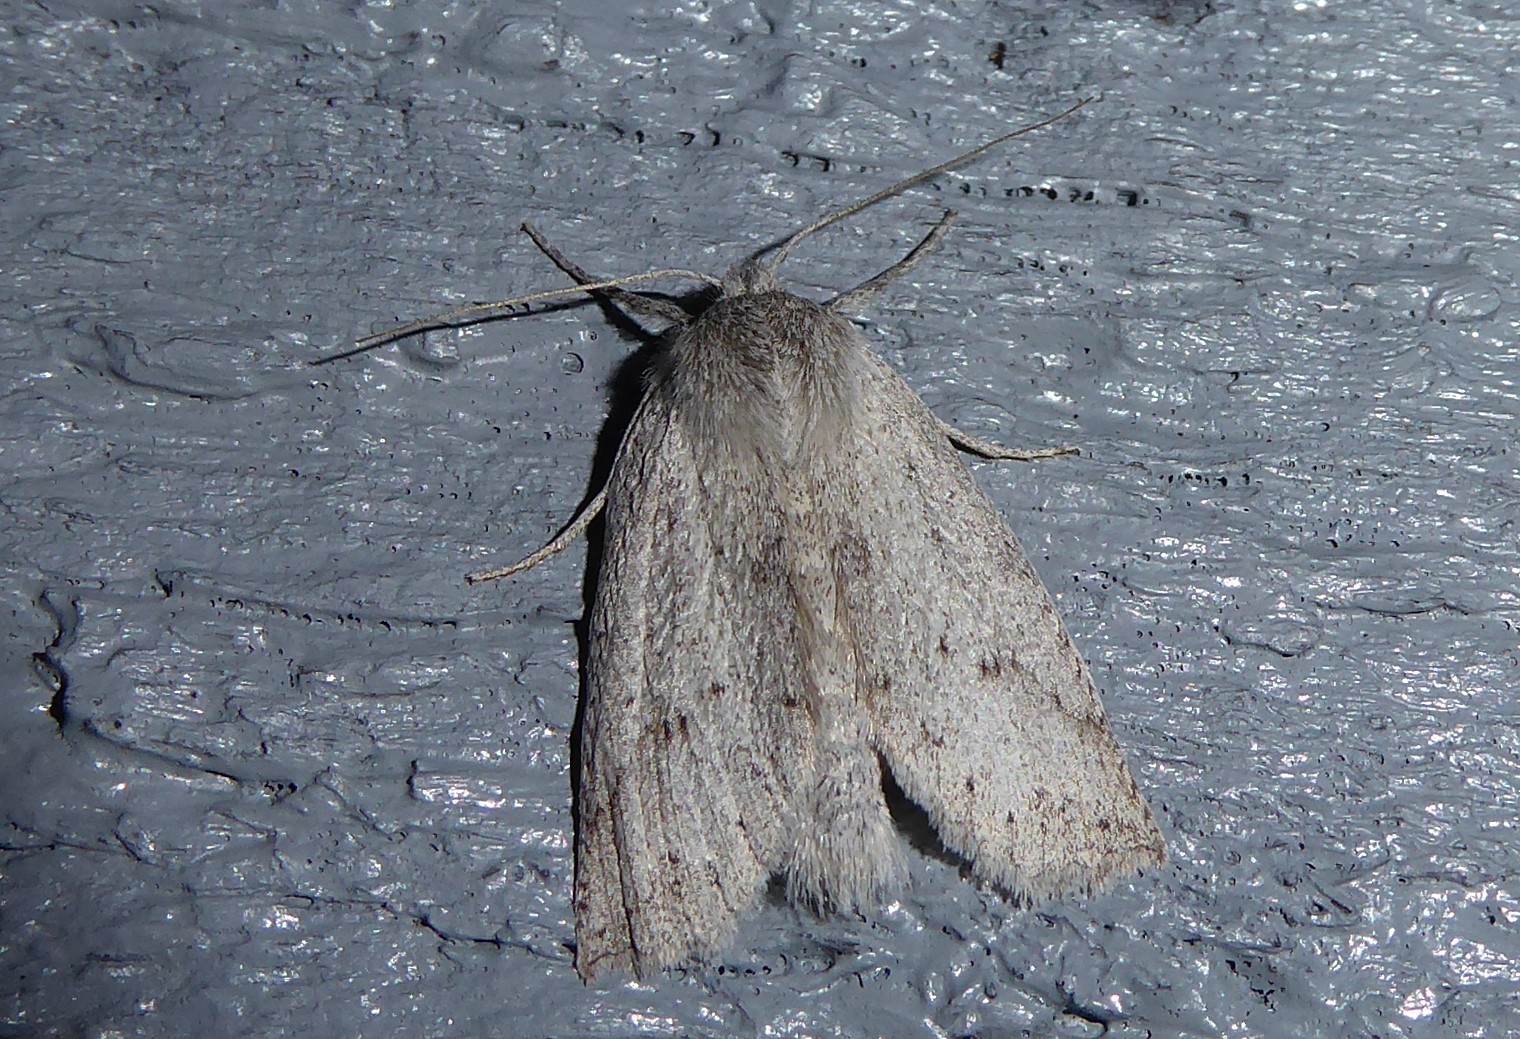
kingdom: Animalia
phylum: Arthropoda
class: Insecta
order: Lepidoptera
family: Geometridae
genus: Declana
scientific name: Declana leptomera
